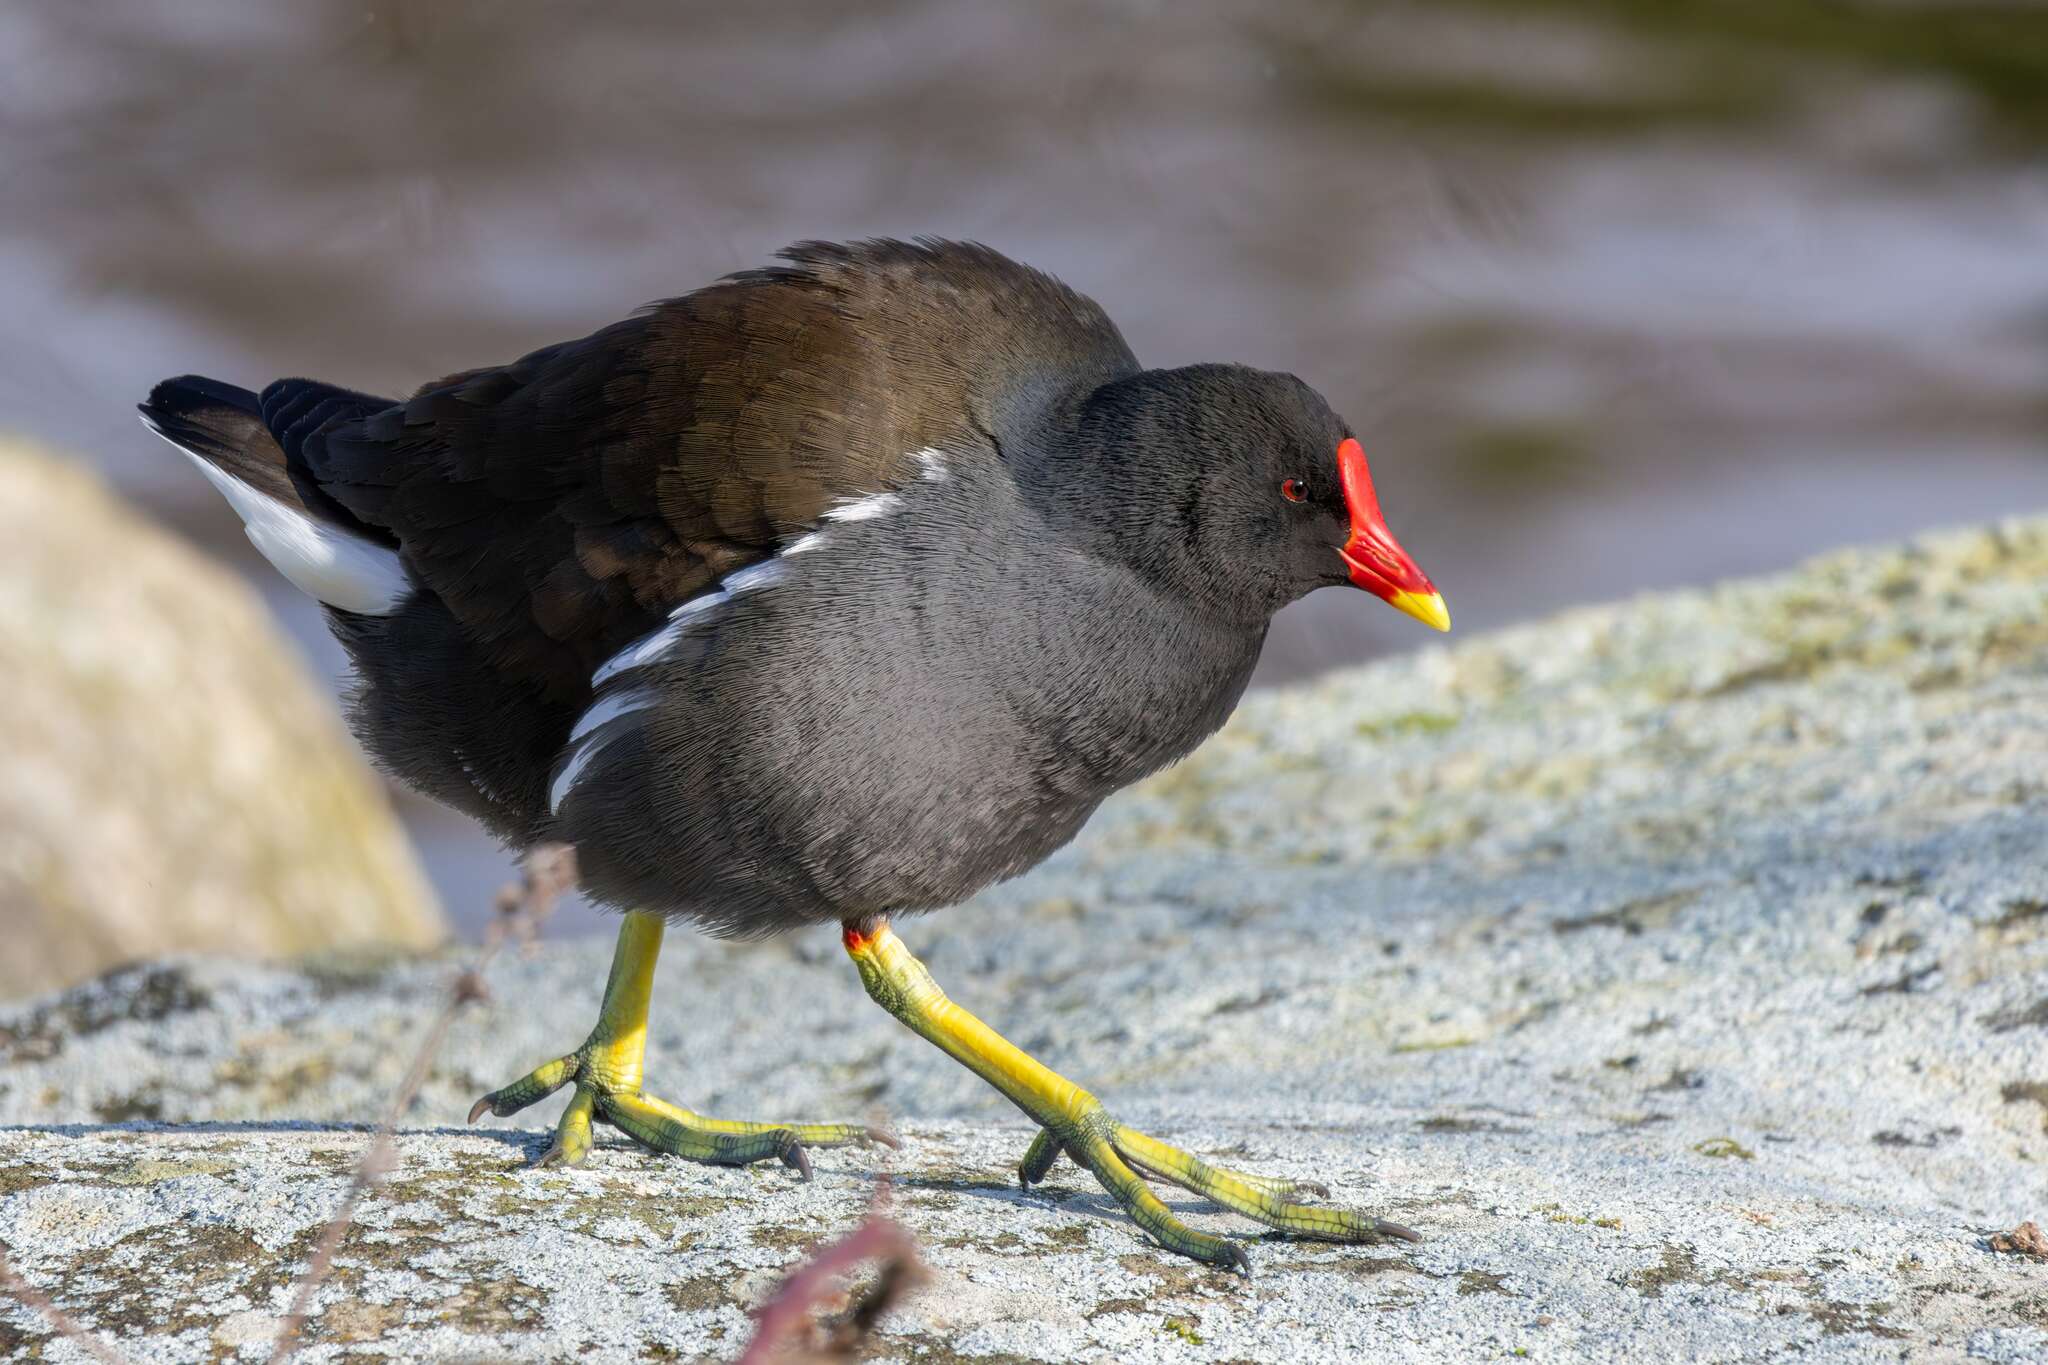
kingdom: Animalia
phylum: Chordata
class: Aves
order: Gruiformes
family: Rallidae
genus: Gallinula
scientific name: Gallinula chloropus
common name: Common moorhen
